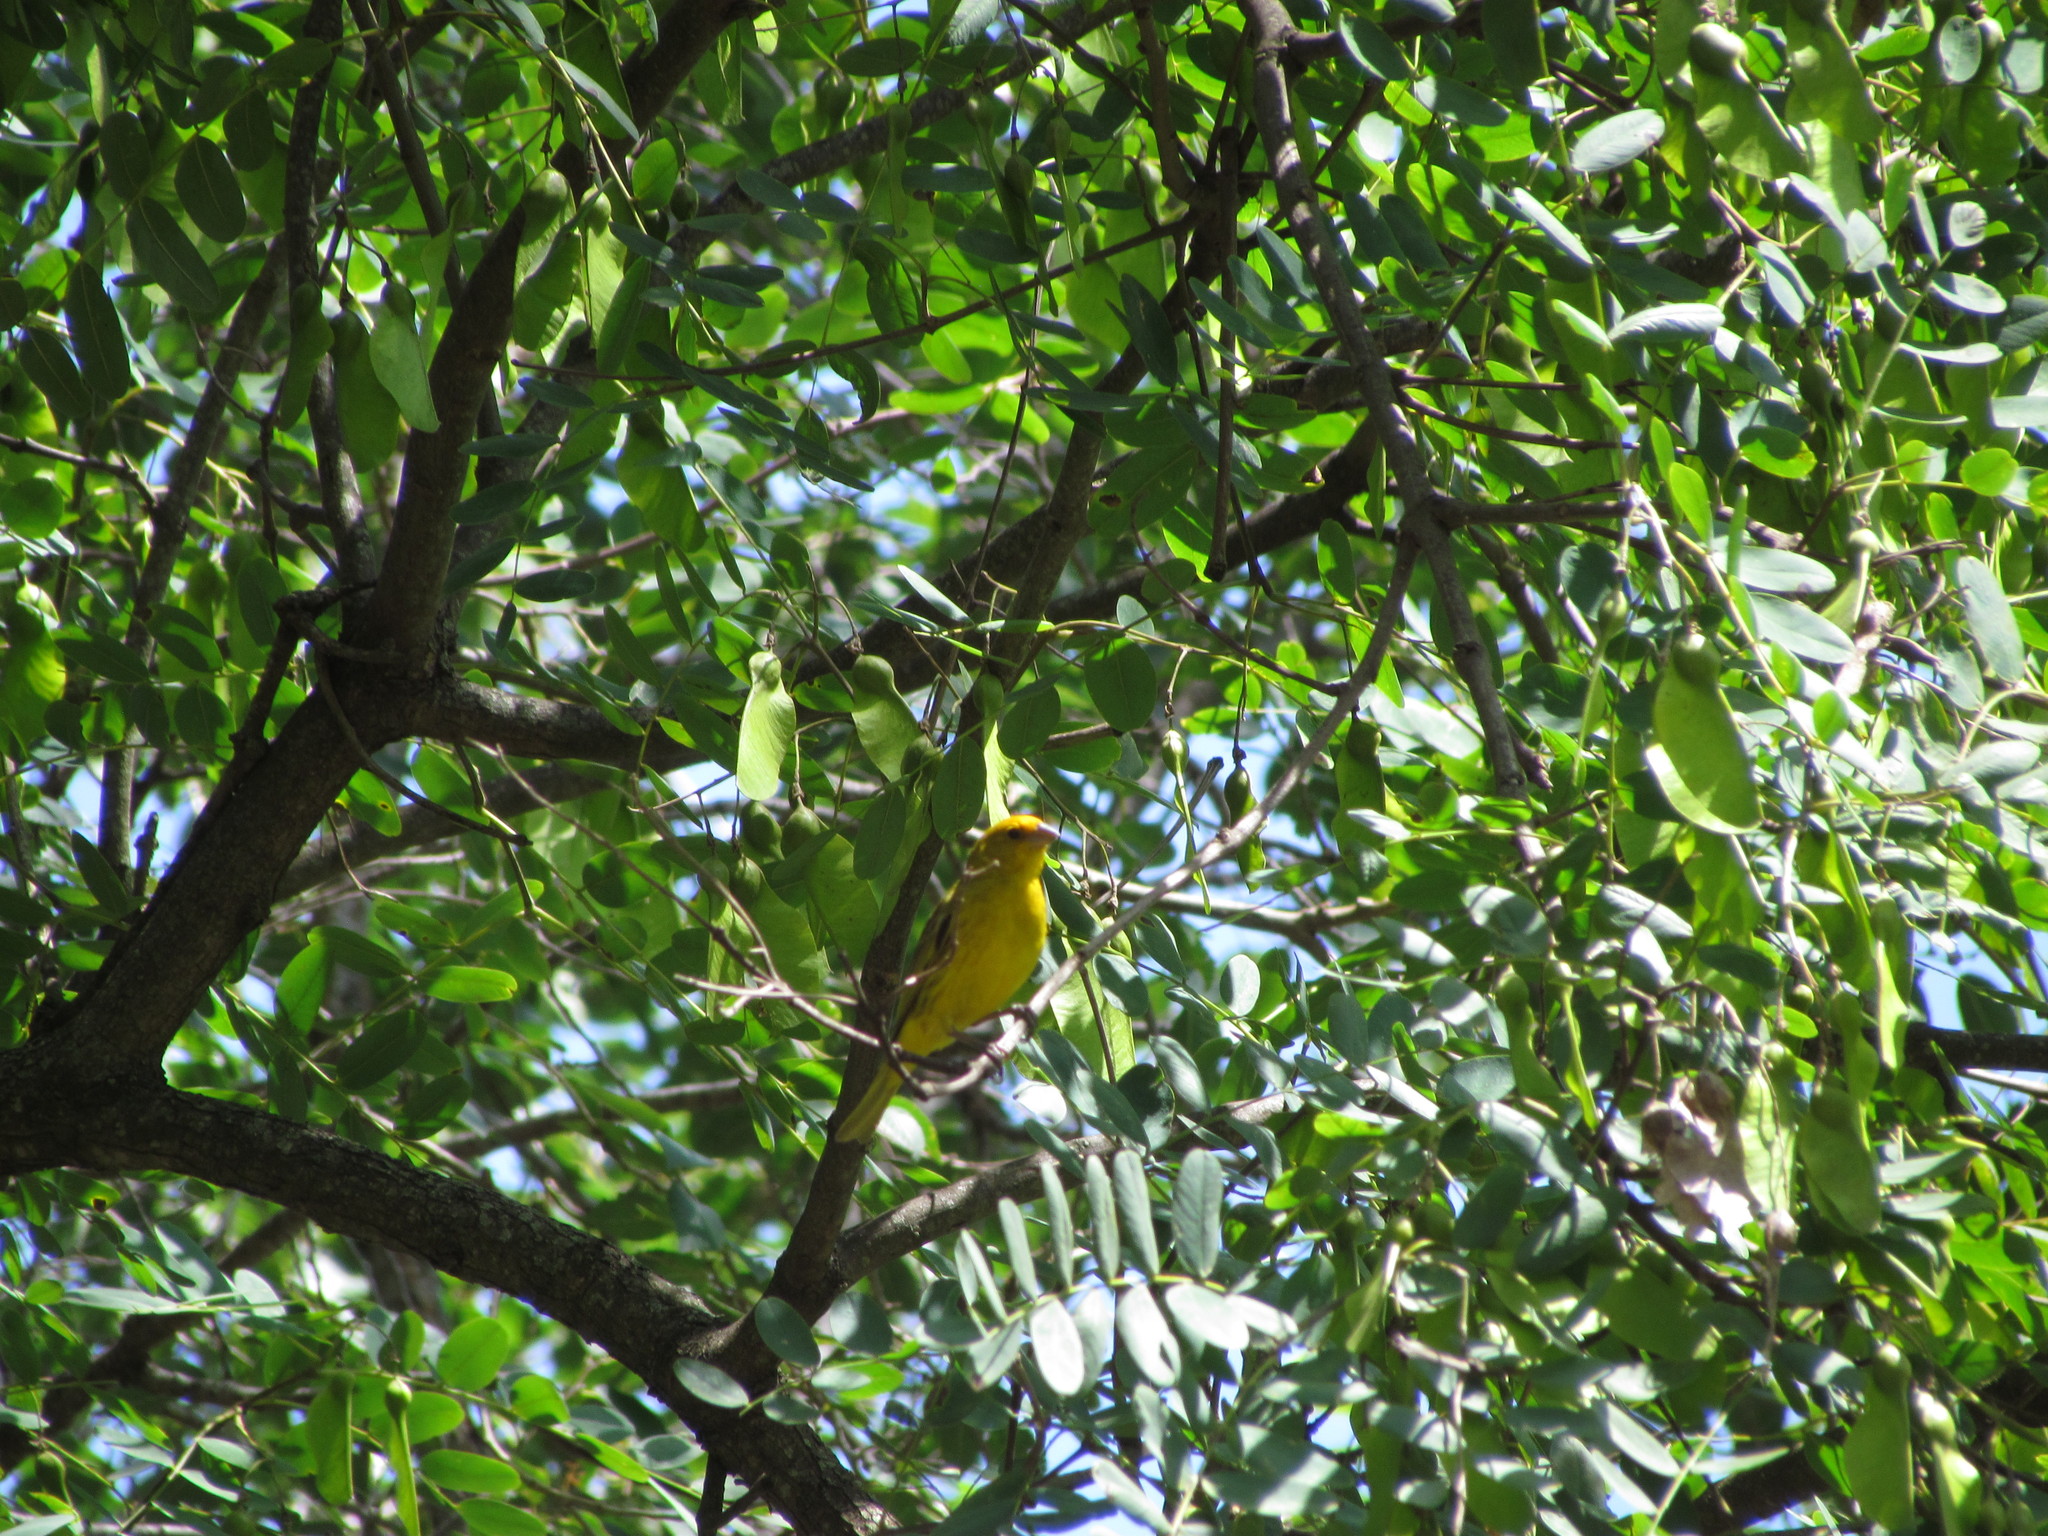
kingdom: Animalia
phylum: Chordata
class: Aves
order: Passeriformes
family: Thraupidae
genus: Sicalis
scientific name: Sicalis flaveola
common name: Saffron finch
